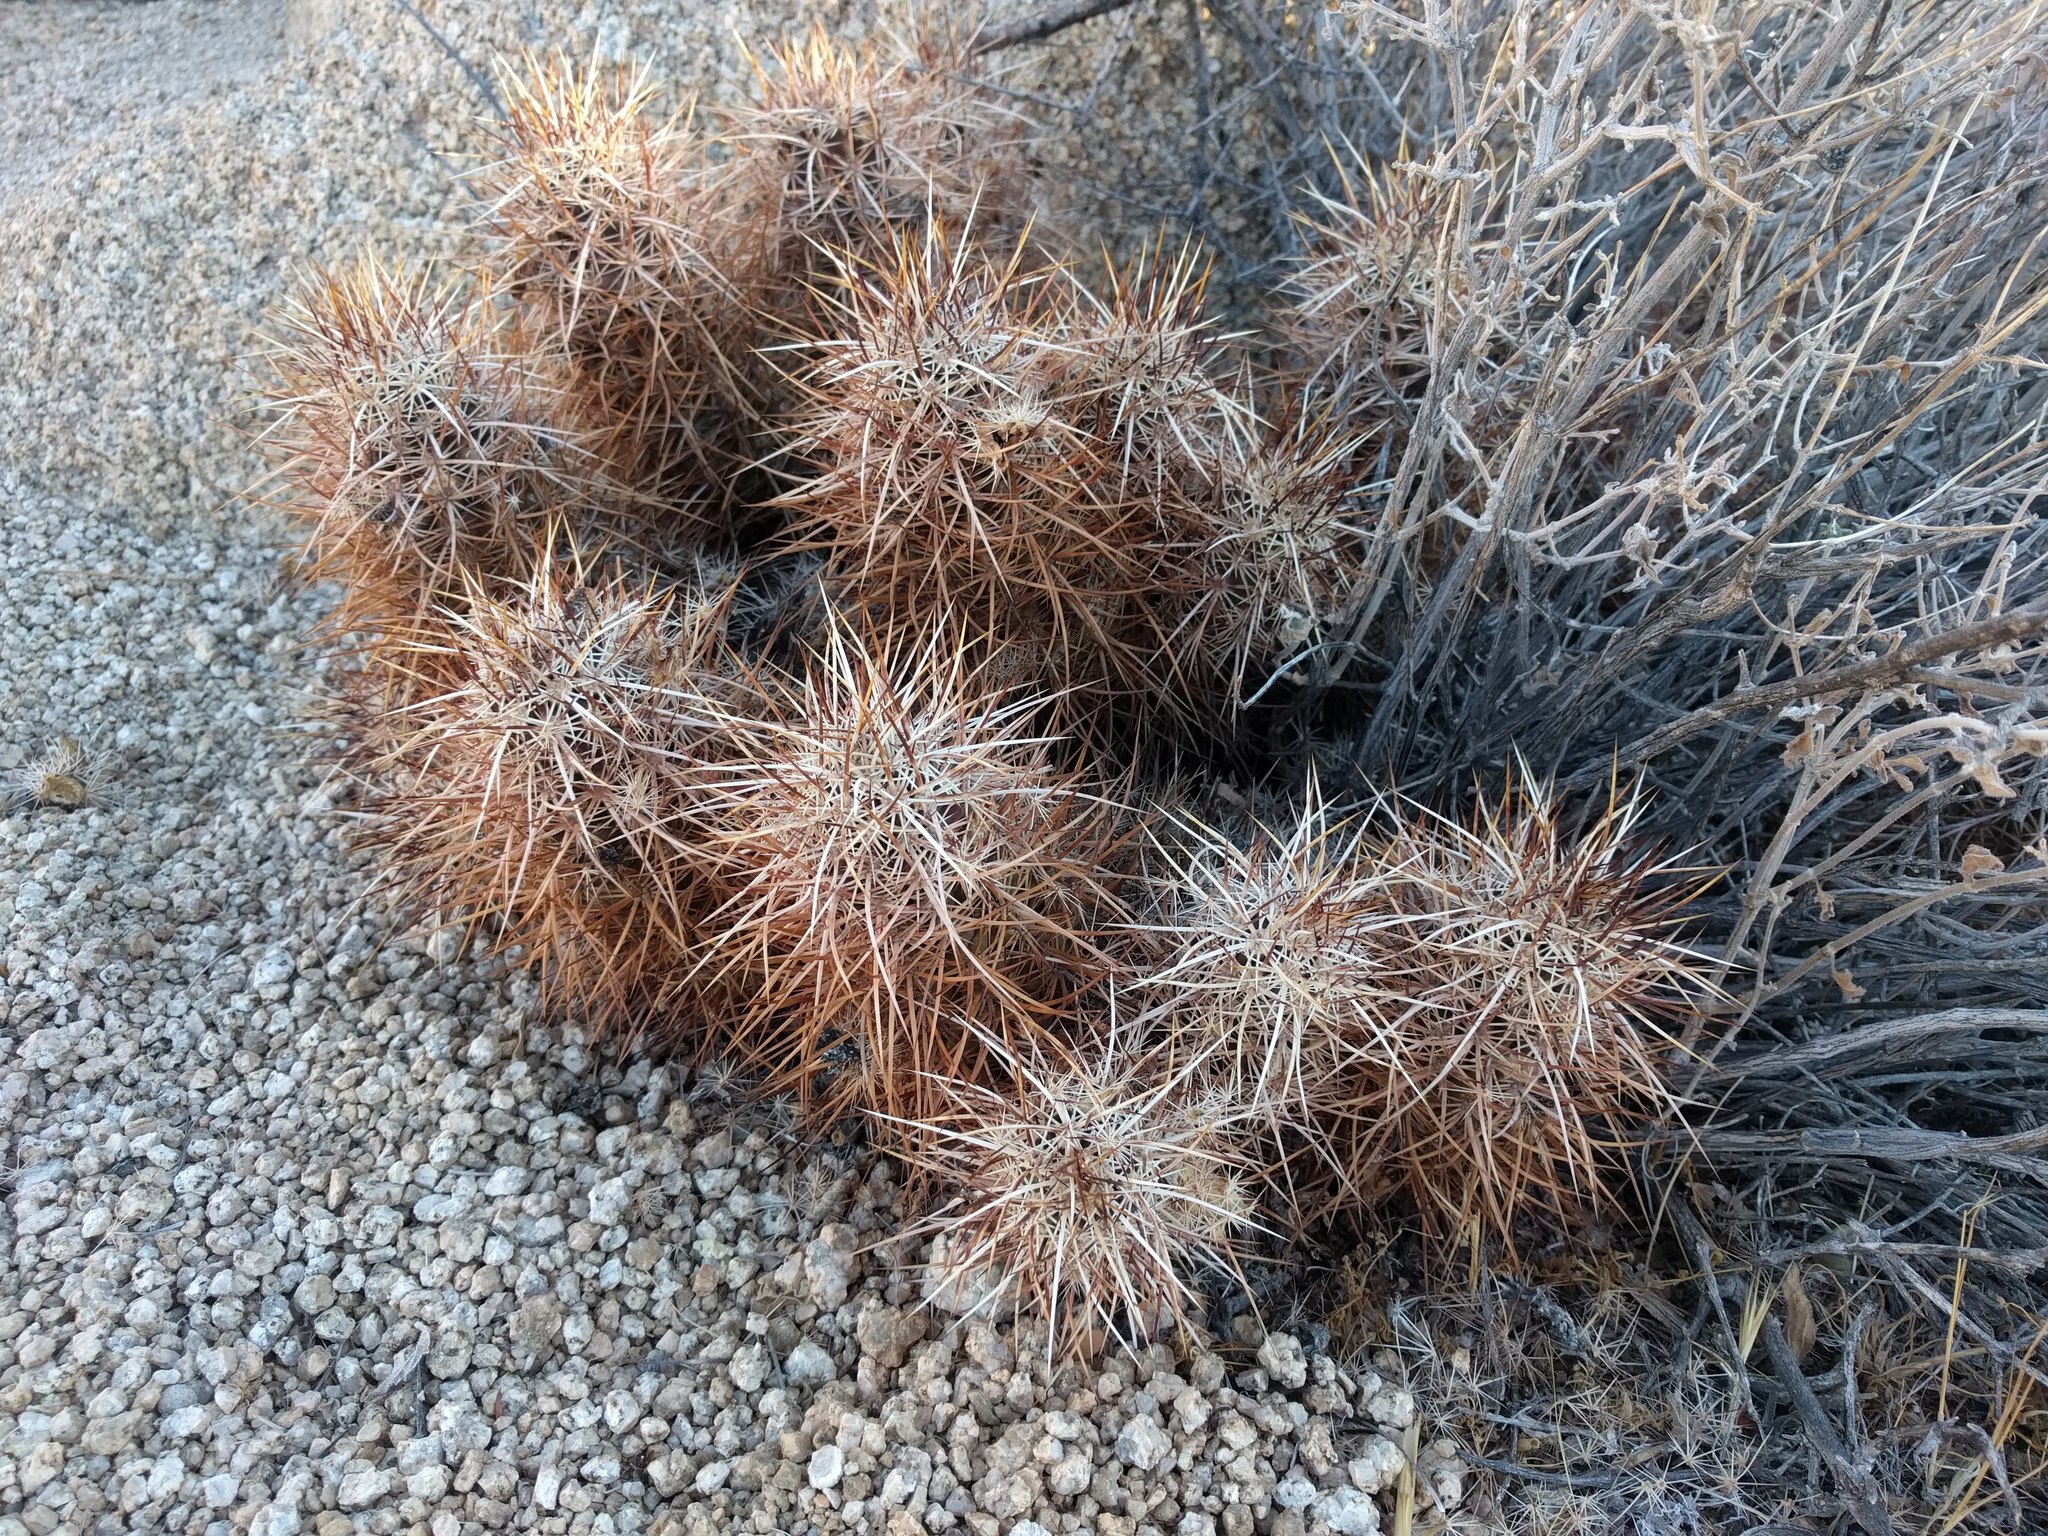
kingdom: Plantae
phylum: Tracheophyta
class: Magnoliopsida
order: Caryophyllales
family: Cactaceae
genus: Echinocereus
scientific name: Echinocereus engelmannii
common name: Engelmann's hedgehog cactus
